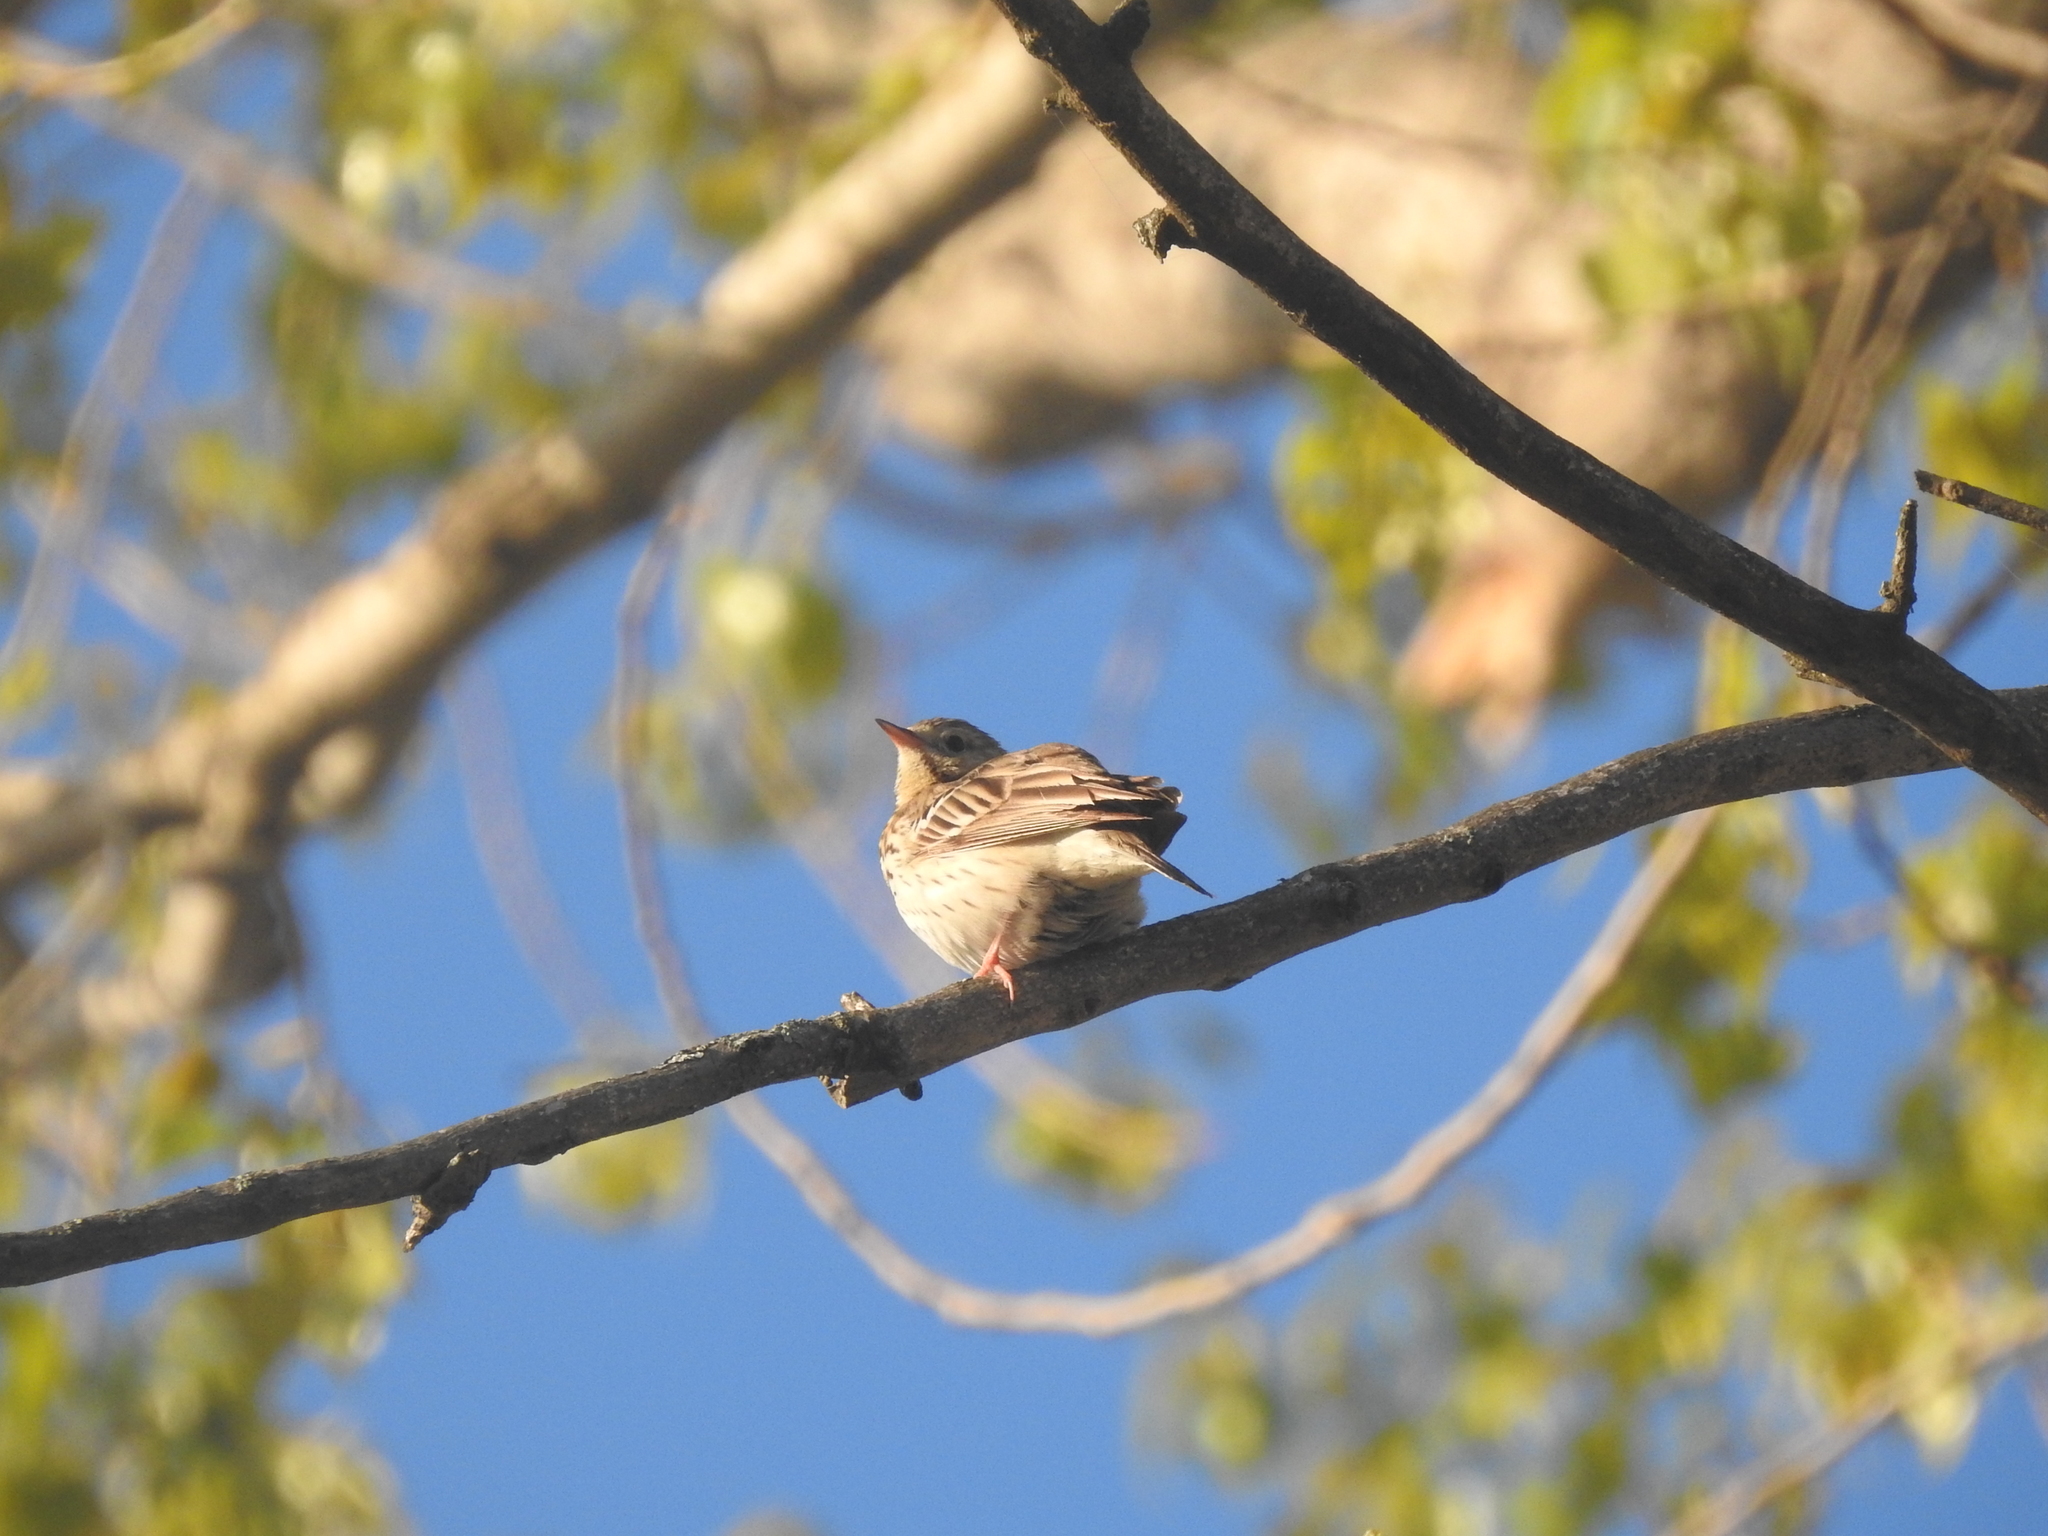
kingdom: Animalia
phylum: Chordata
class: Aves
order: Passeriformes
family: Motacillidae
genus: Anthus
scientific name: Anthus trivialis
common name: Tree pipit
